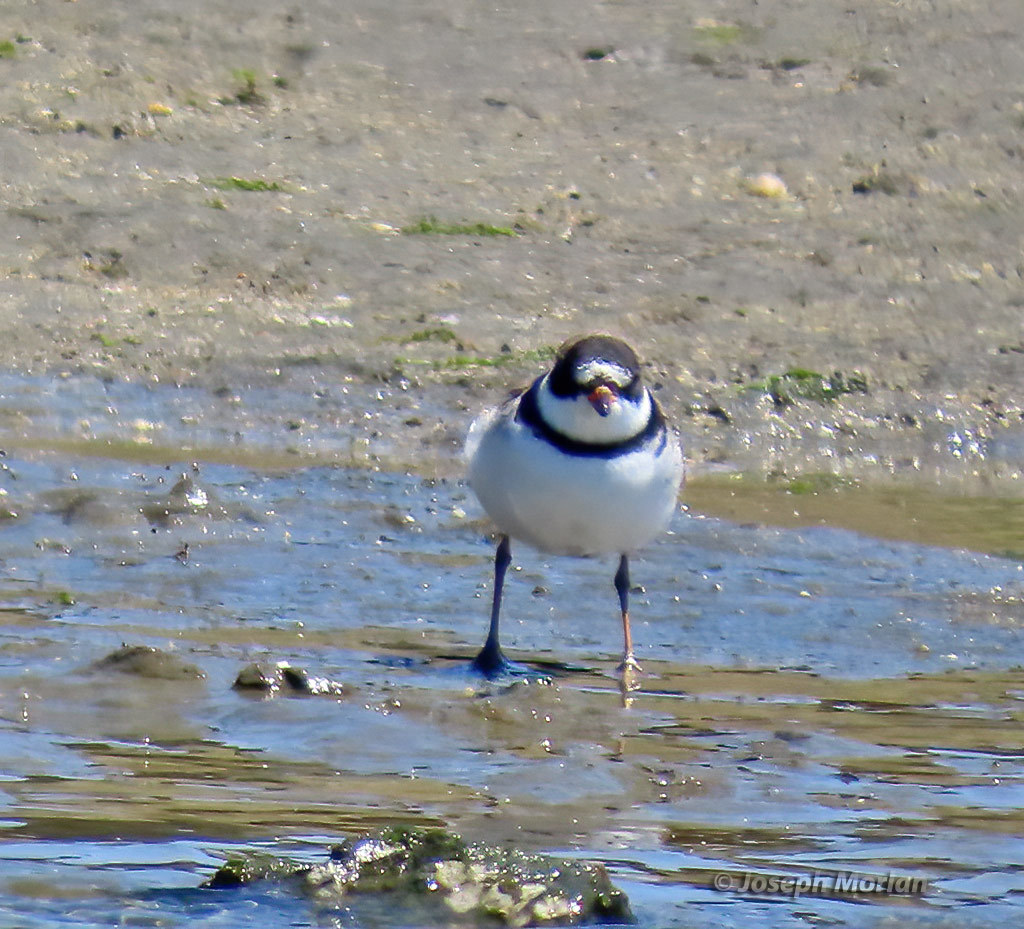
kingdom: Animalia
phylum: Chordata
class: Aves
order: Charadriiformes
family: Charadriidae
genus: Charadrius
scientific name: Charadrius semipalmatus
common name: Semipalmated plover
